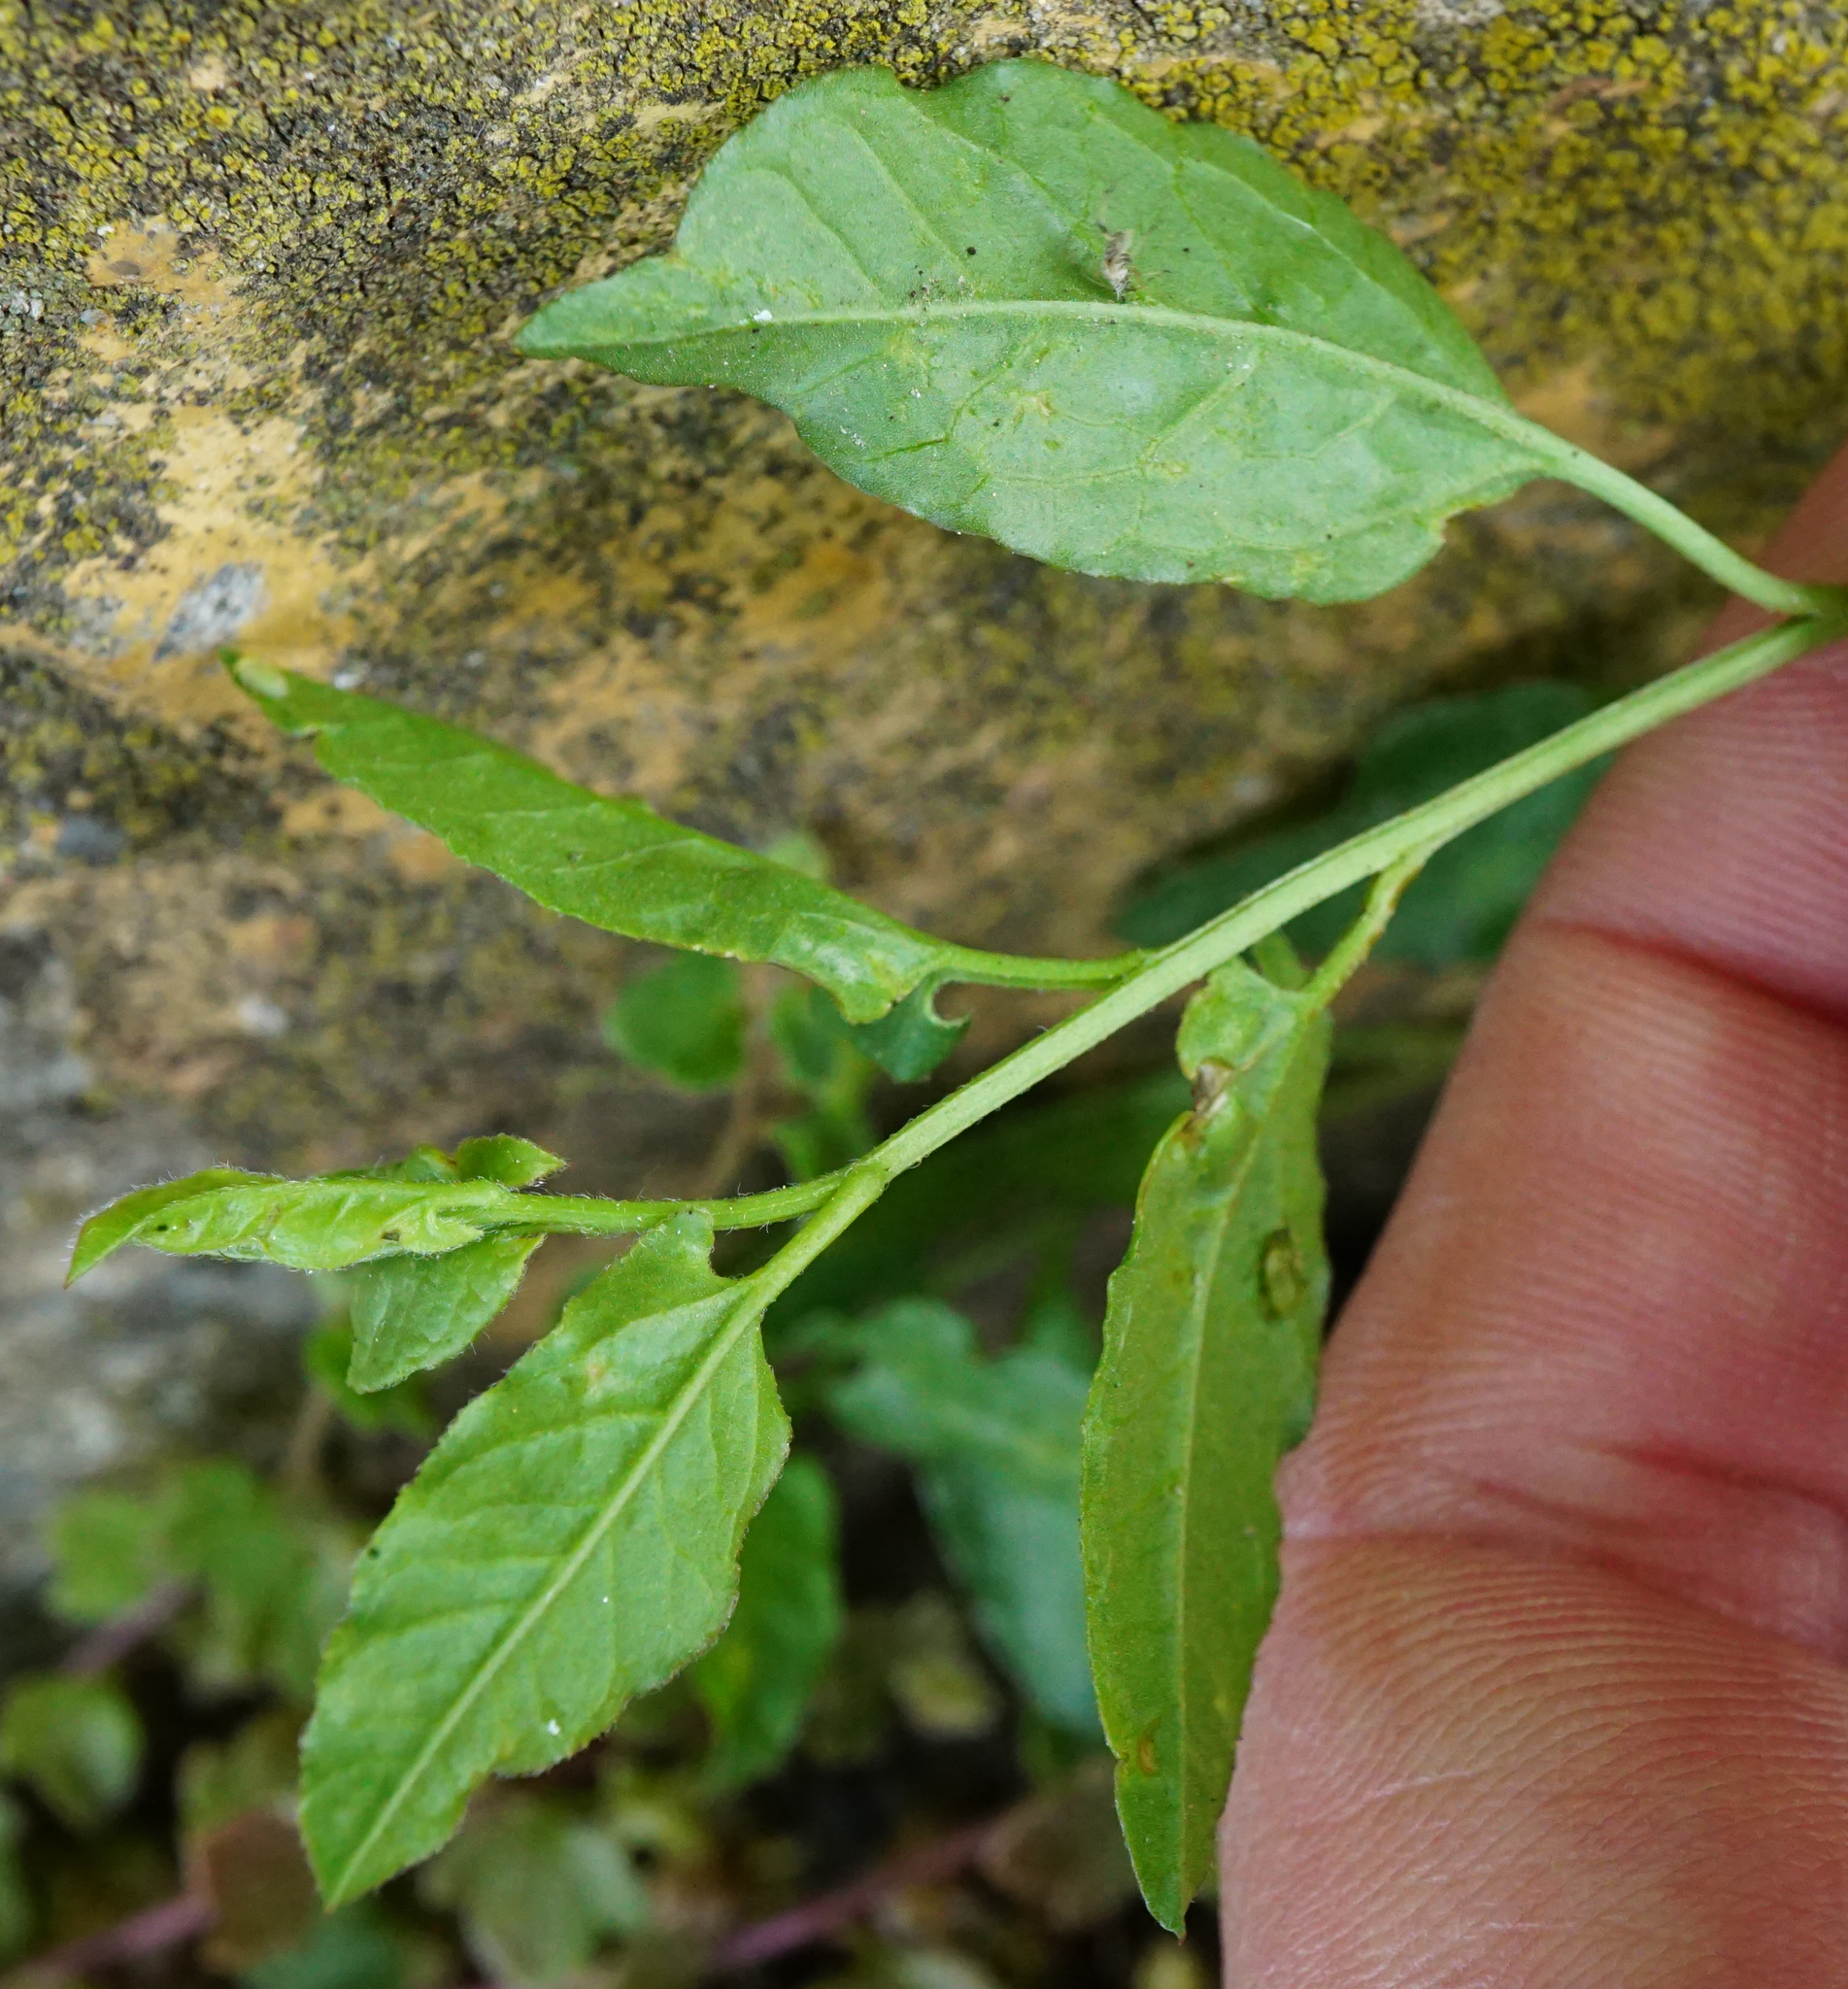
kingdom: Plantae
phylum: Tracheophyta
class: Magnoliopsida
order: Solanales
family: Convolvulaceae
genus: Convolvulus
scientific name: Convolvulus arvensis
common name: Field bindweed
